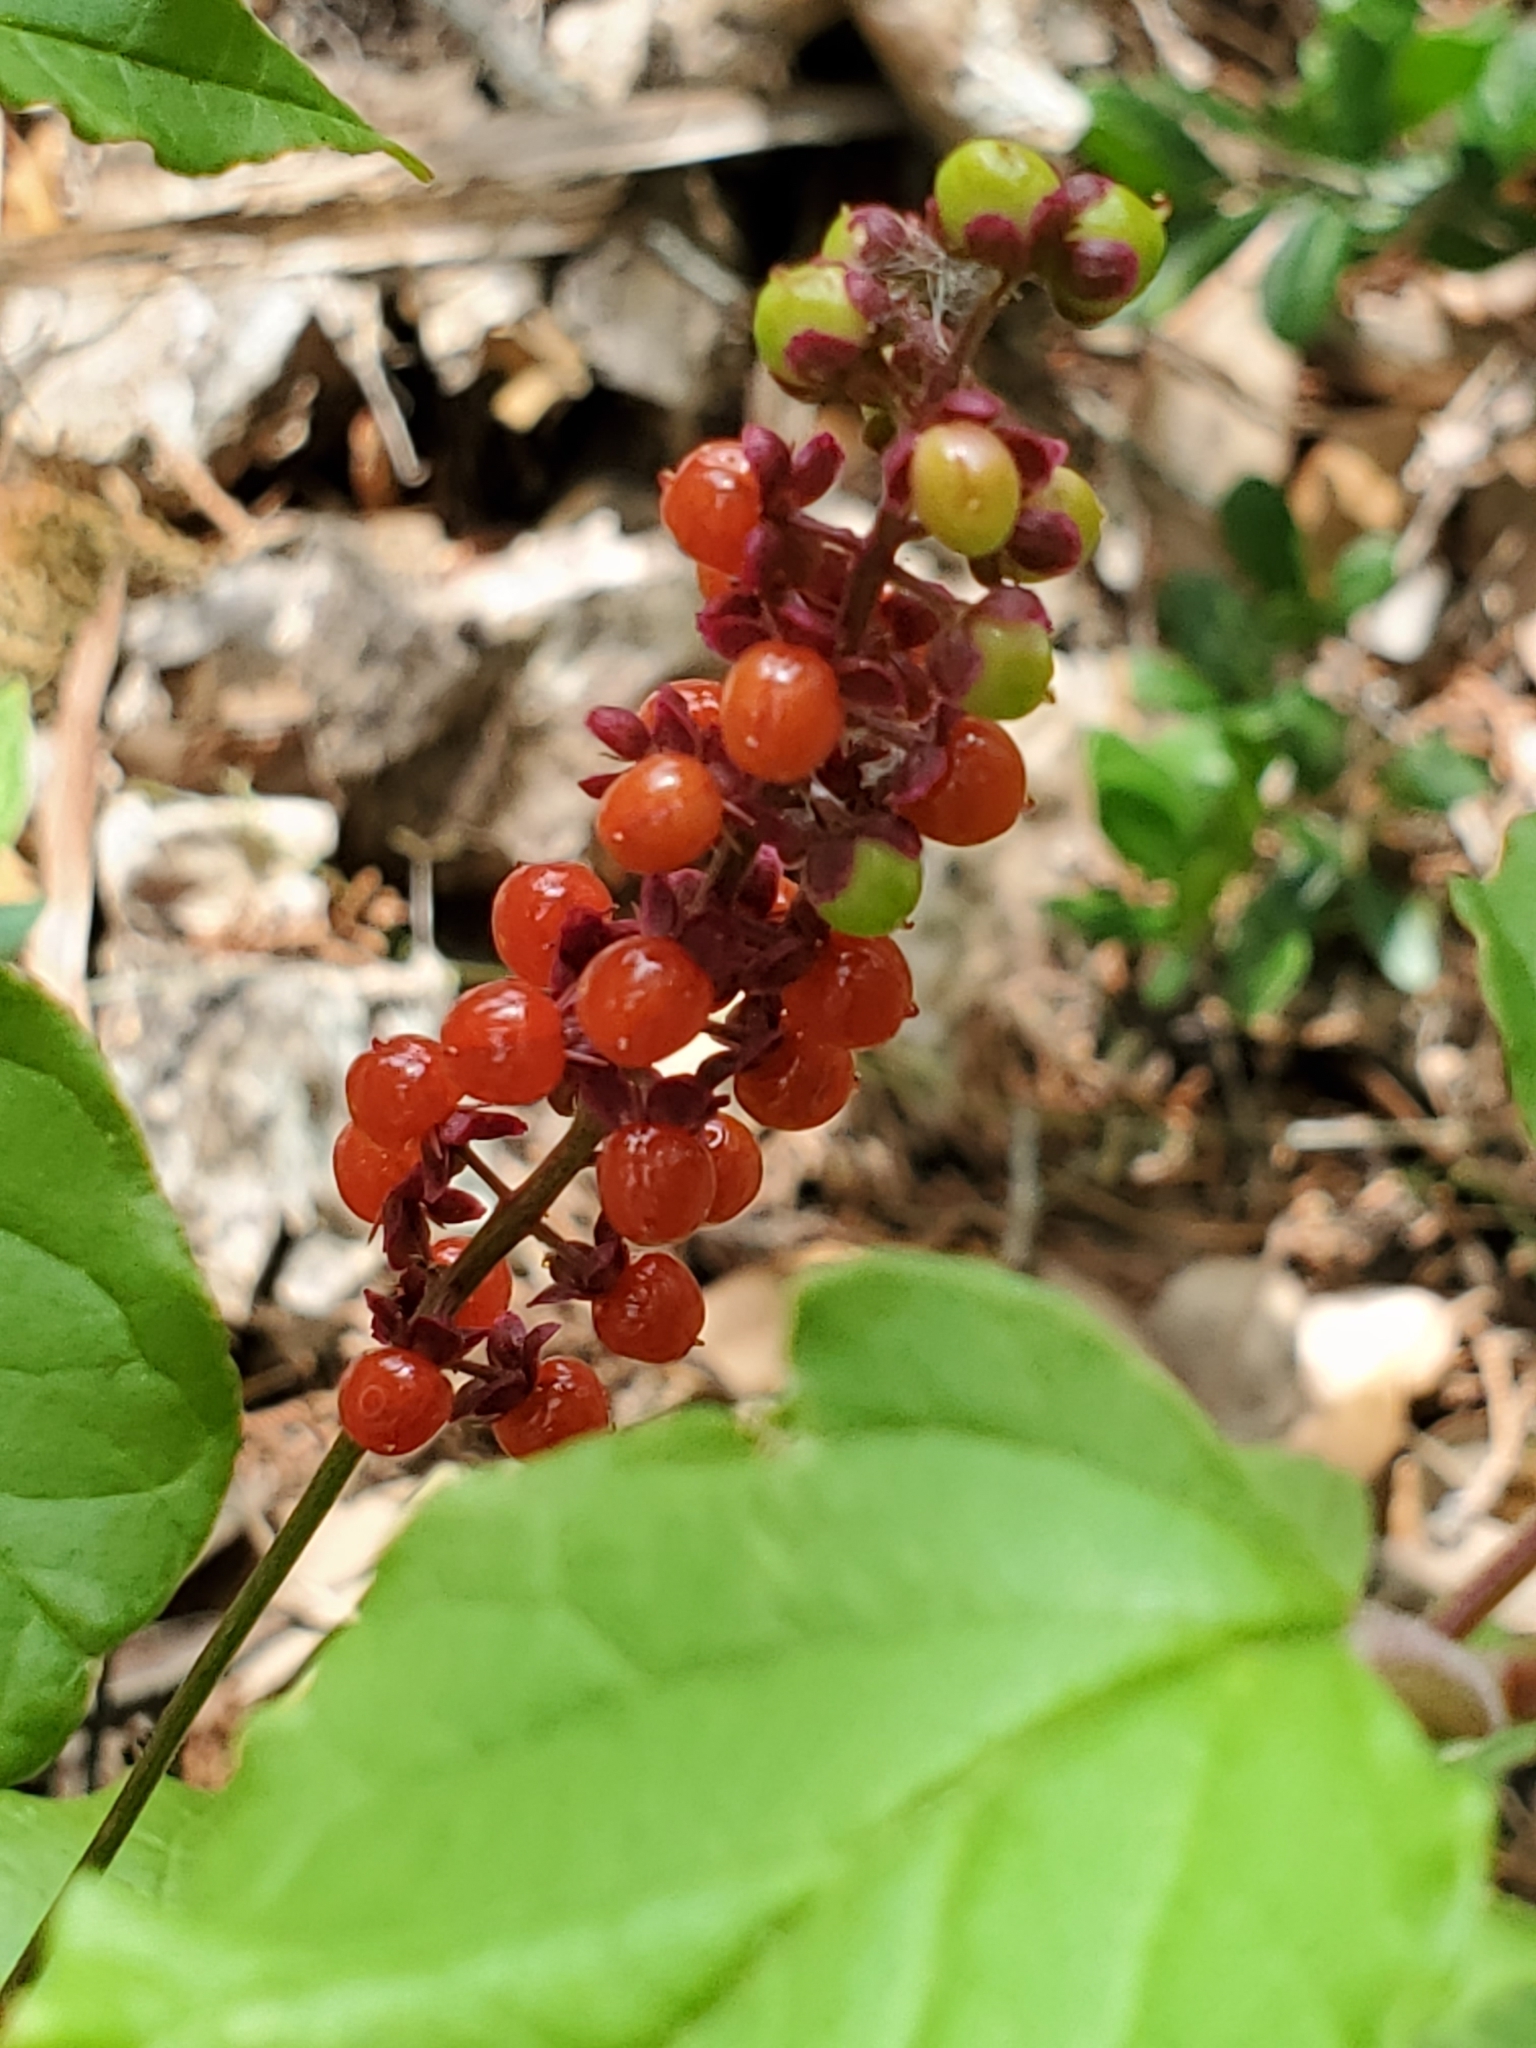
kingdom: Plantae
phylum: Tracheophyta
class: Magnoliopsida
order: Caryophyllales
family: Phytolaccaceae
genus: Rivina
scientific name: Rivina humilis
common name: Rougeplant
